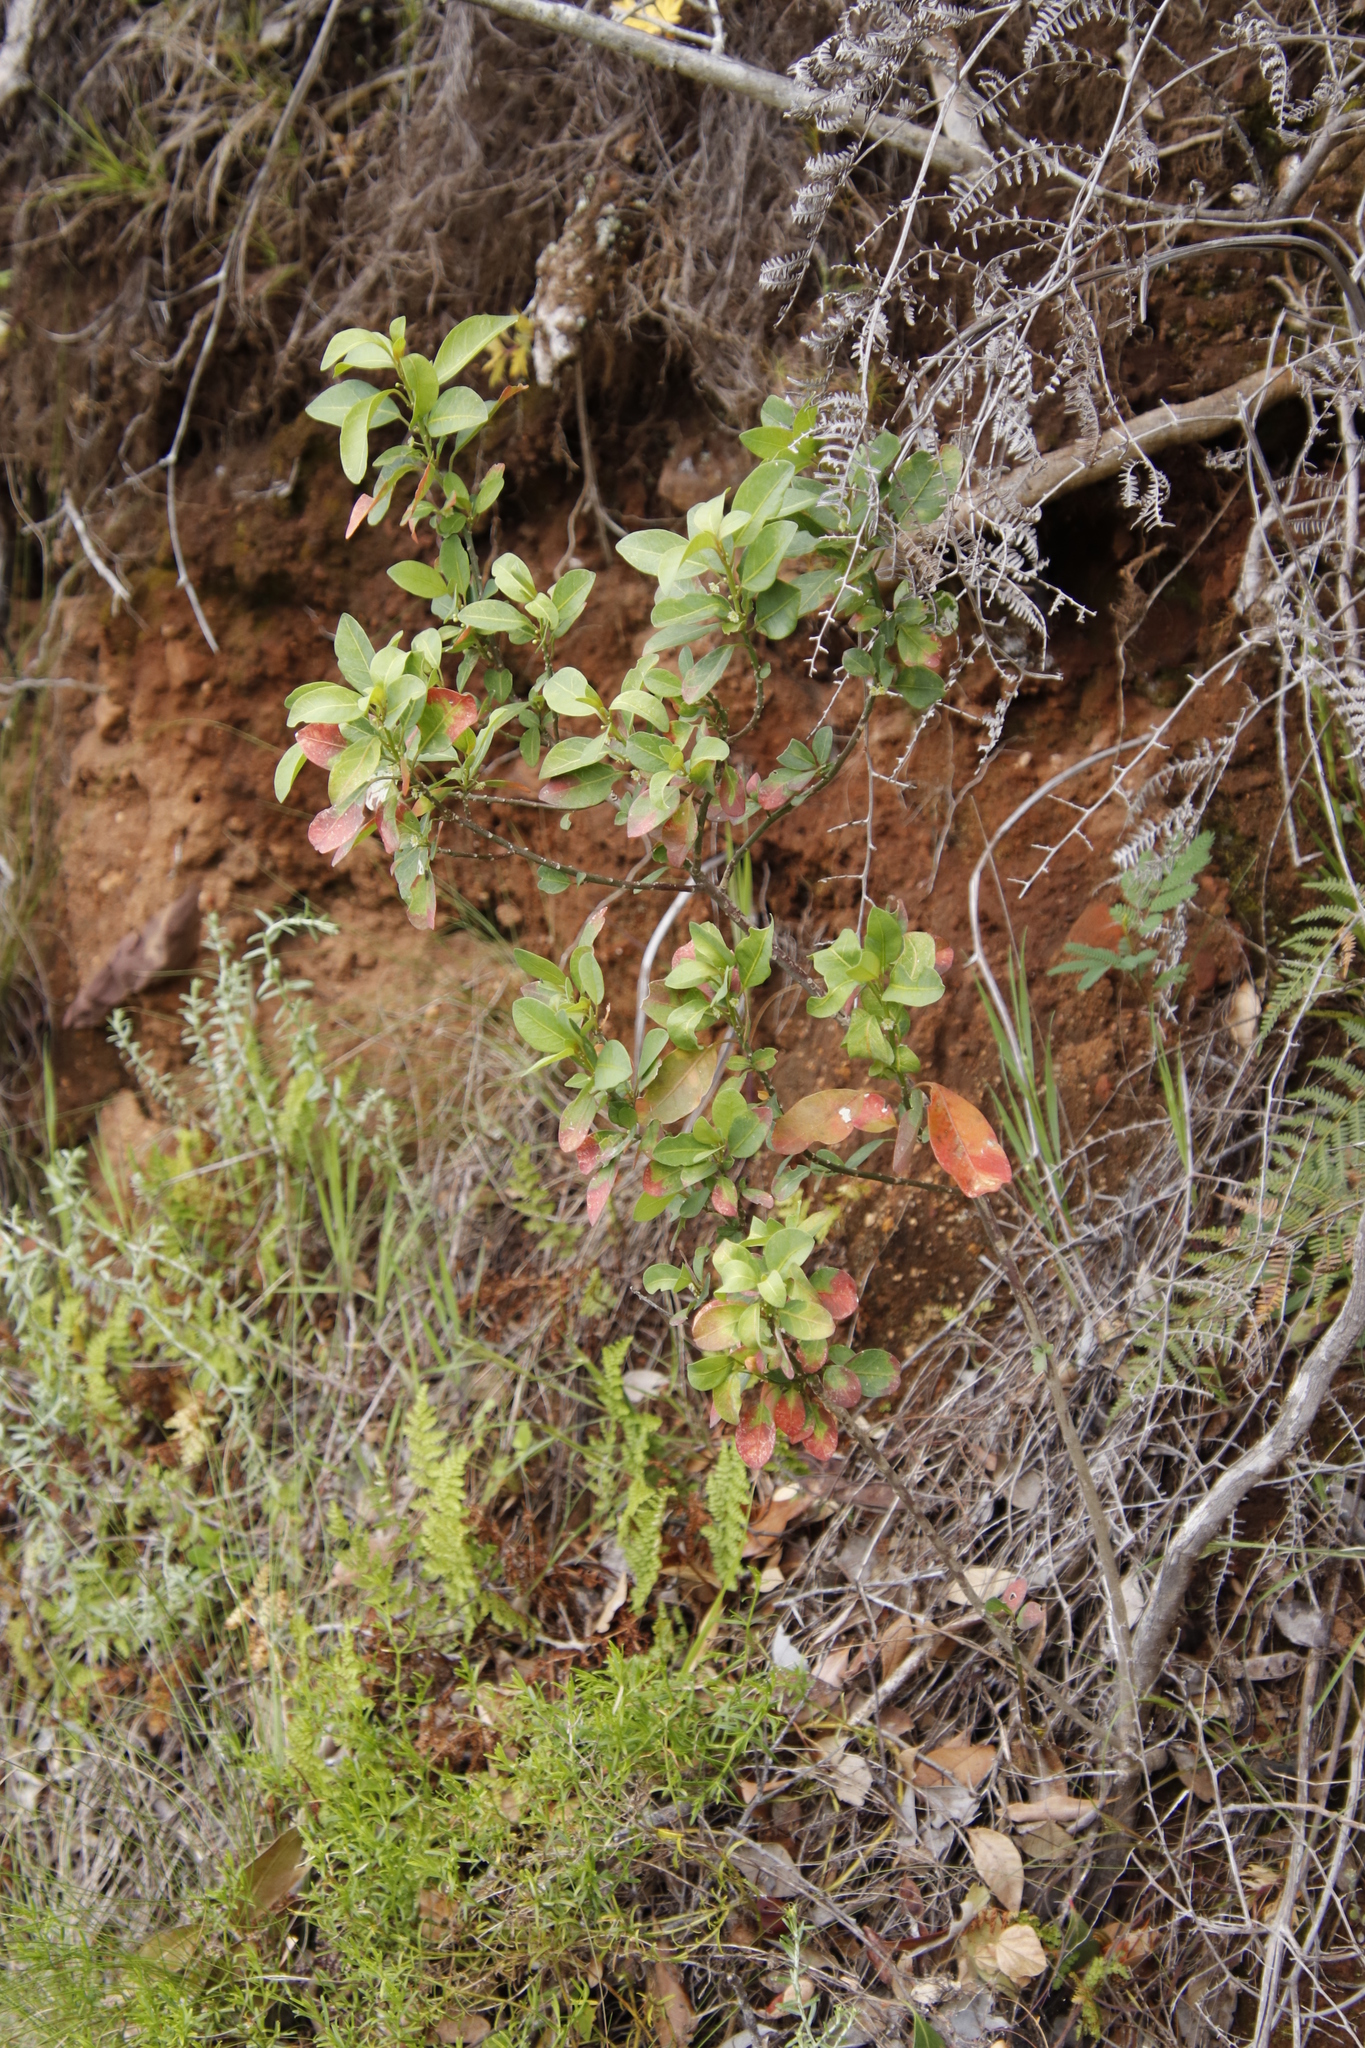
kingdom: Plantae
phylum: Tracheophyta
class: Magnoliopsida
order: Malpighiales
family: Peraceae
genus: Clutia
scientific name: Clutia pulchella
